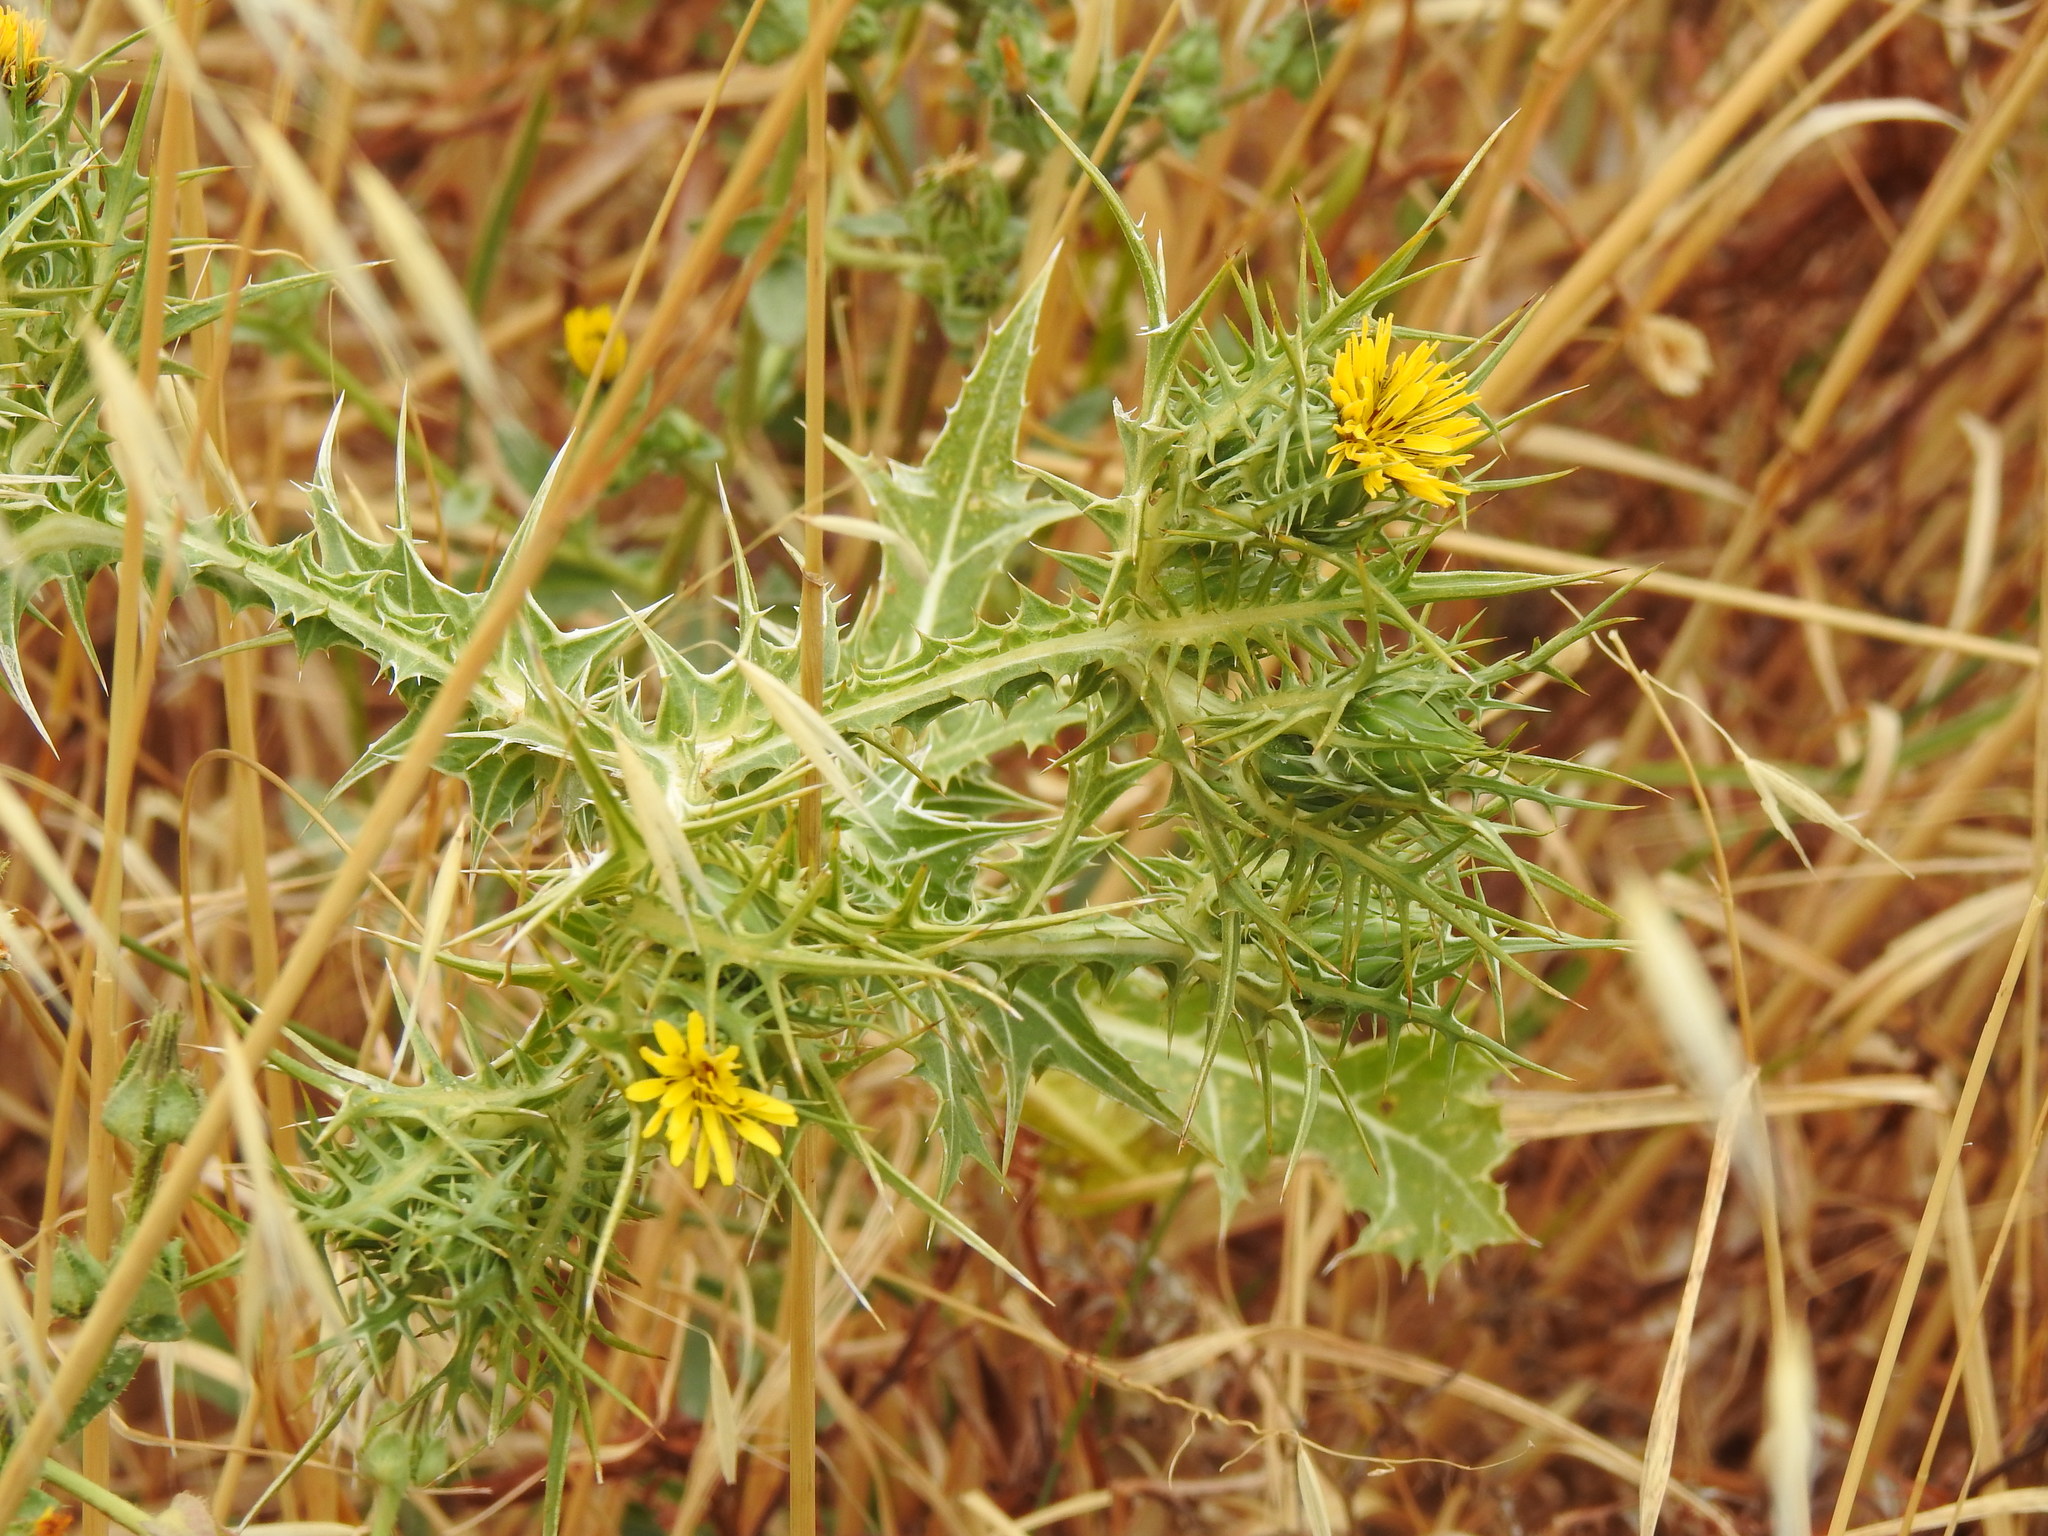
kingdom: Plantae
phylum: Tracheophyta
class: Magnoliopsida
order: Asterales
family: Asteraceae
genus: Scolymus
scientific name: Scolymus maculatus
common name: Spotted thistle
